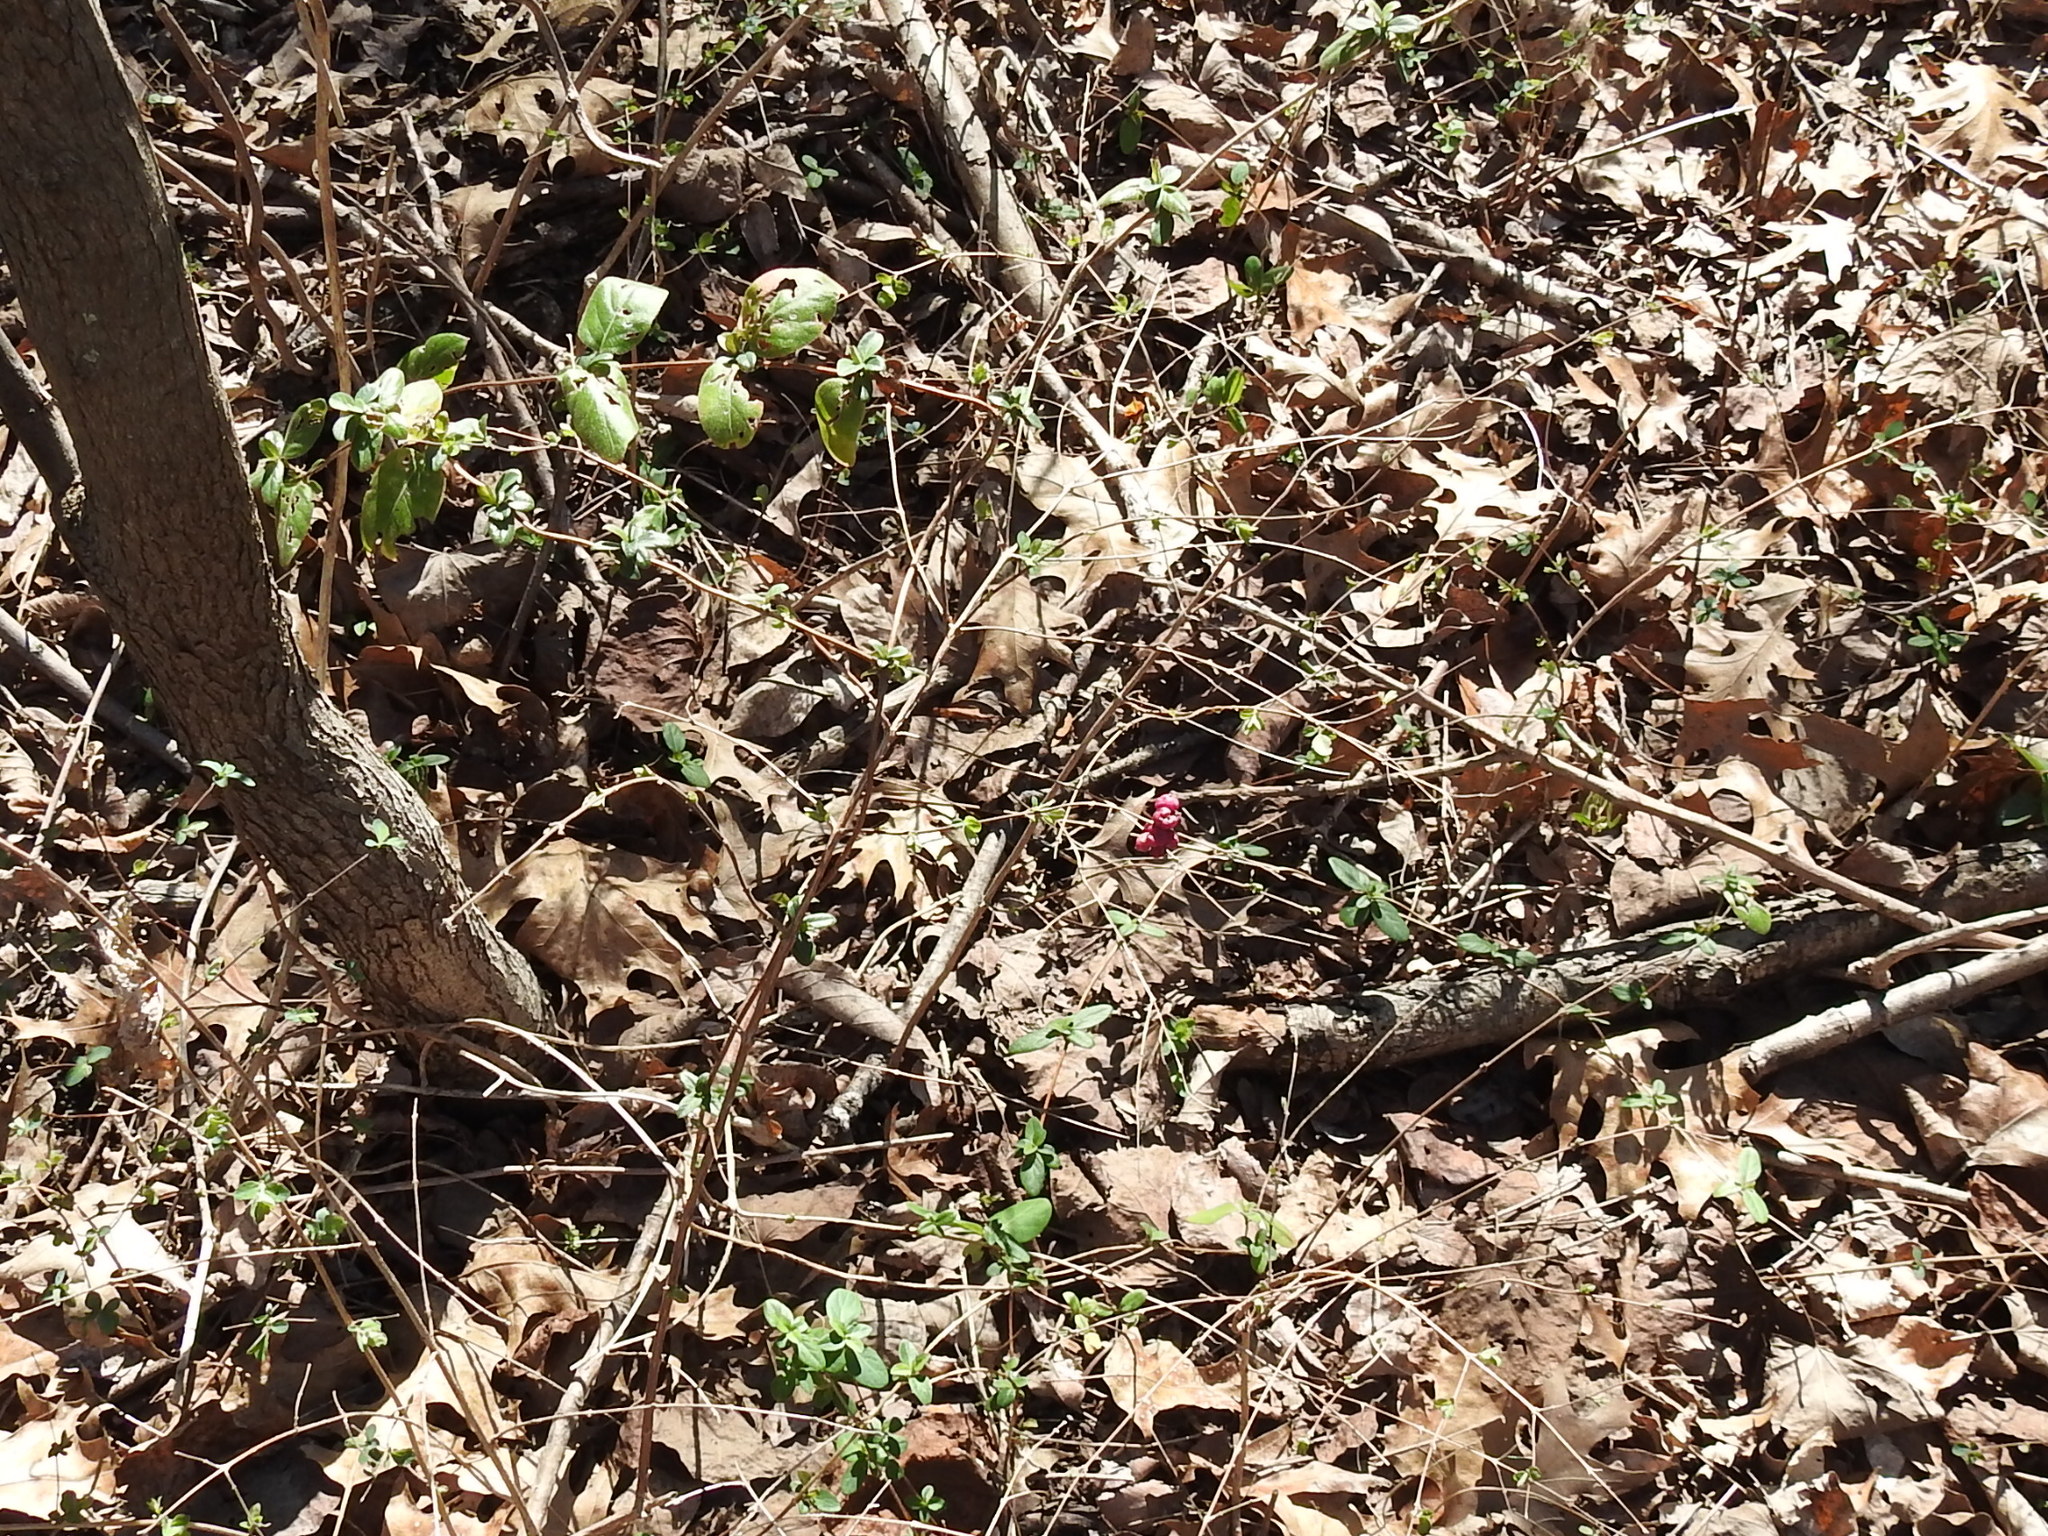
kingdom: Plantae
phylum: Tracheophyta
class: Magnoliopsida
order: Dipsacales
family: Caprifoliaceae
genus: Symphoricarpos
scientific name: Symphoricarpos orbiculatus
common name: Coralberry
